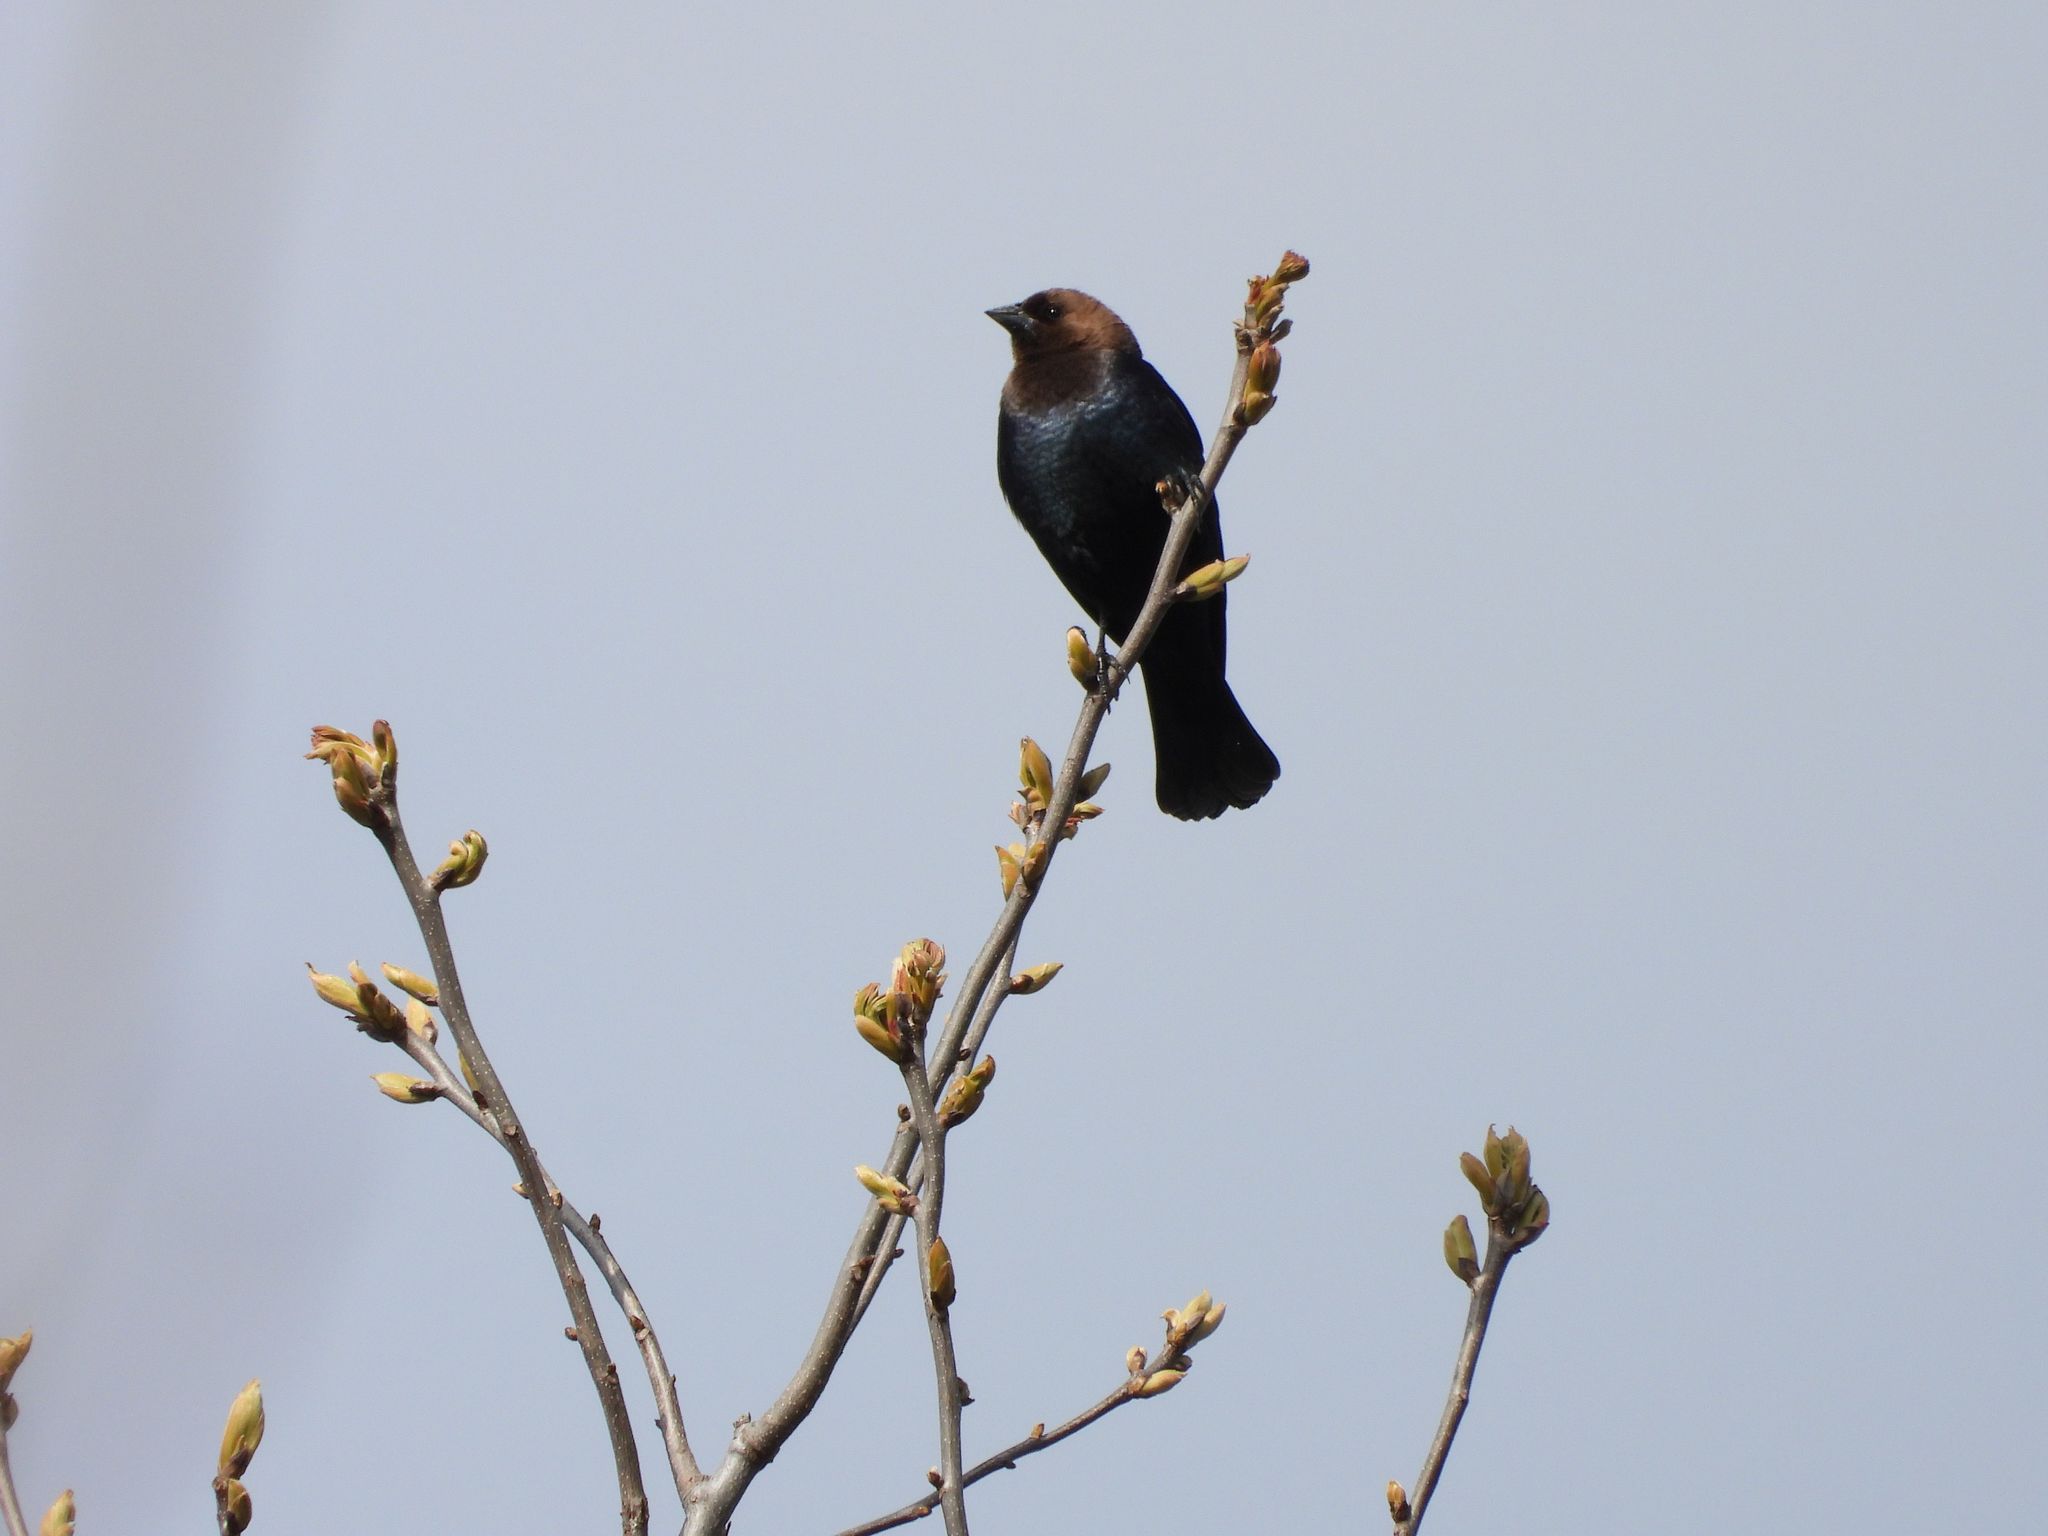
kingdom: Animalia
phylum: Chordata
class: Aves
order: Passeriformes
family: Icteridae
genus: Molothrus
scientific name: Molothrus ater
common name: Brown-headed cowbird
